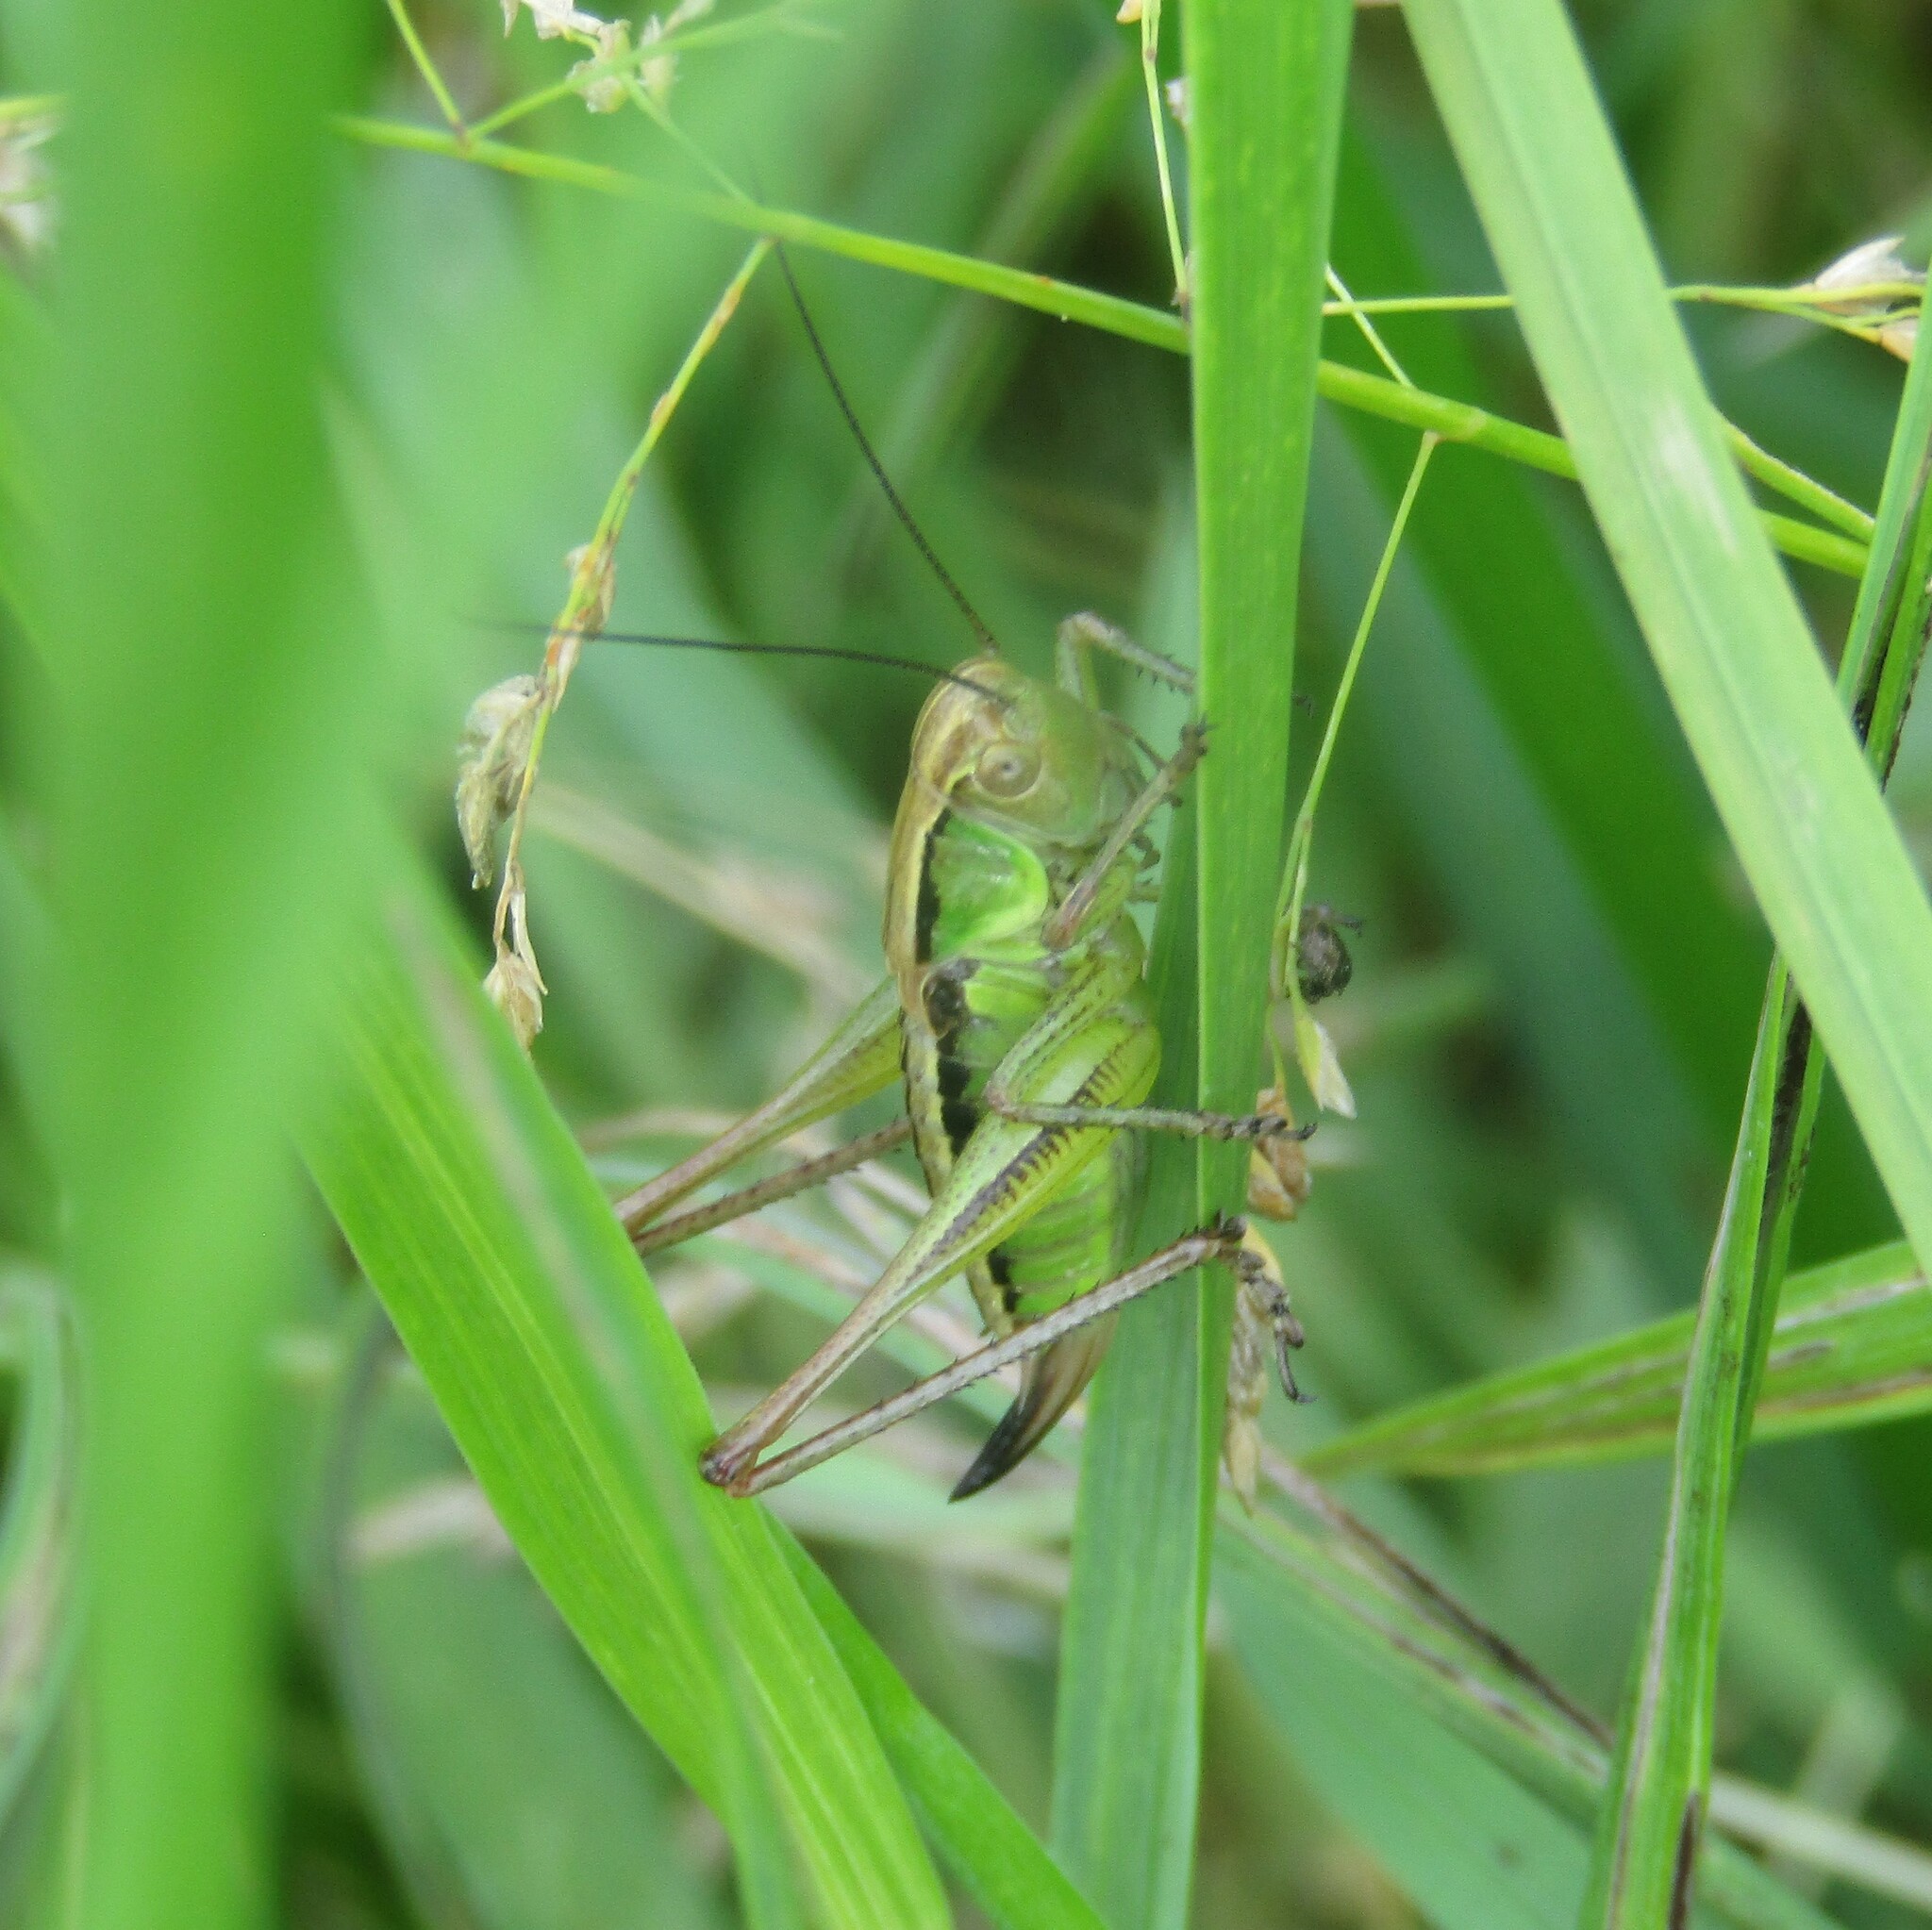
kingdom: Animalia
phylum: Arthropoda
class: Insecta
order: Orthoptera
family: Tettigoniidae
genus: Roeseliana
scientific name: Roeseliana roeselii
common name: Roesel's bush cricket
